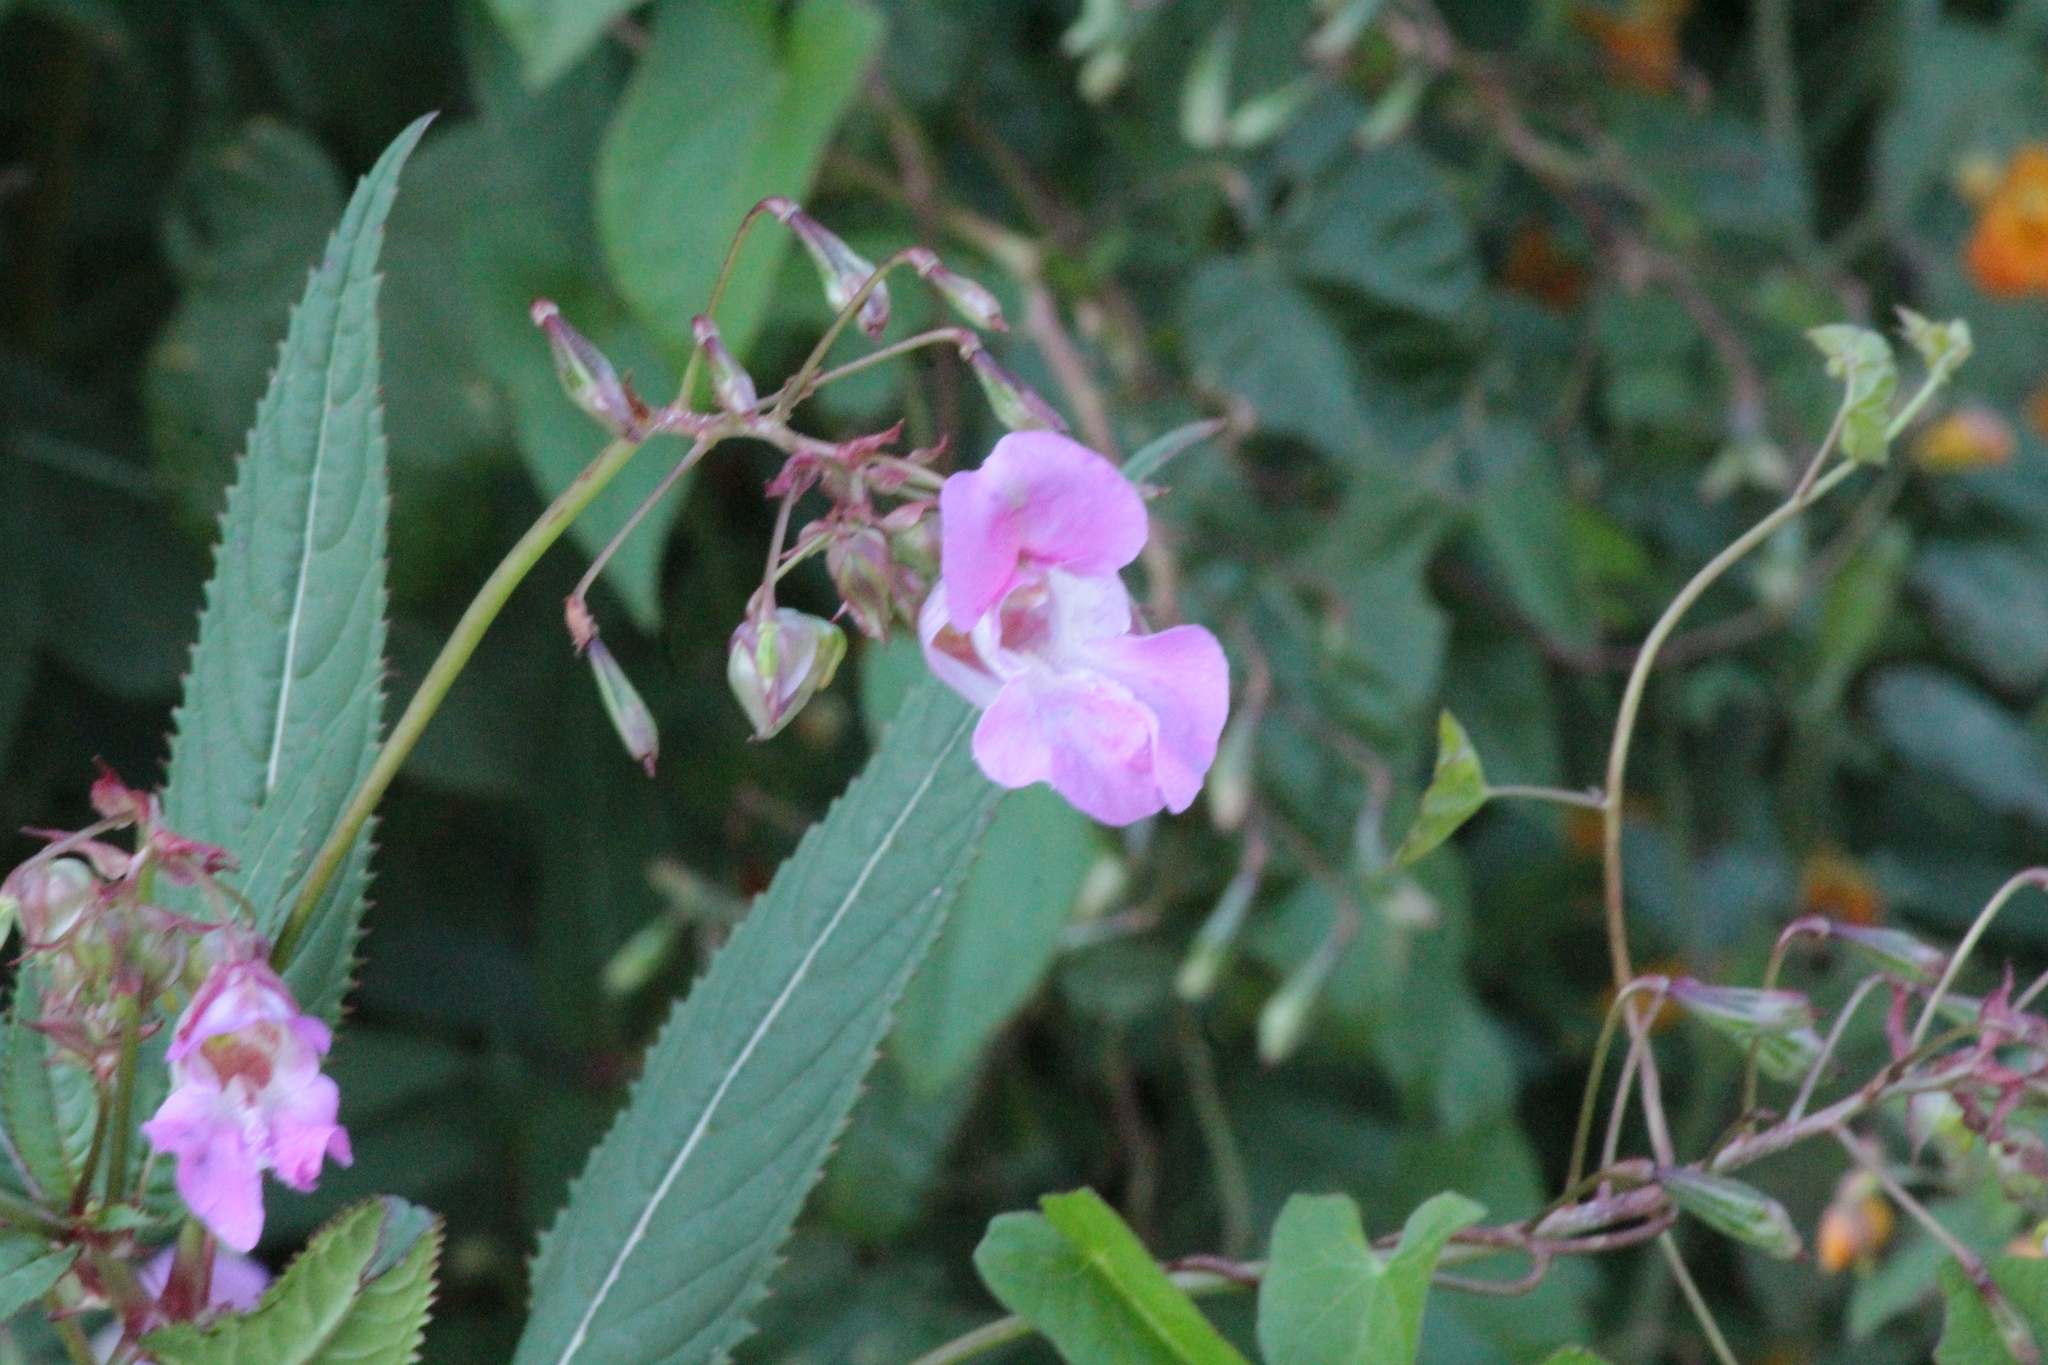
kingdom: Plantae
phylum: Tracheophyta
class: Magnoliopsida
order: Ericales
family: Balsaminaceae
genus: Impatiens
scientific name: Impatiens glandulifera
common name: Himalayan balsam
